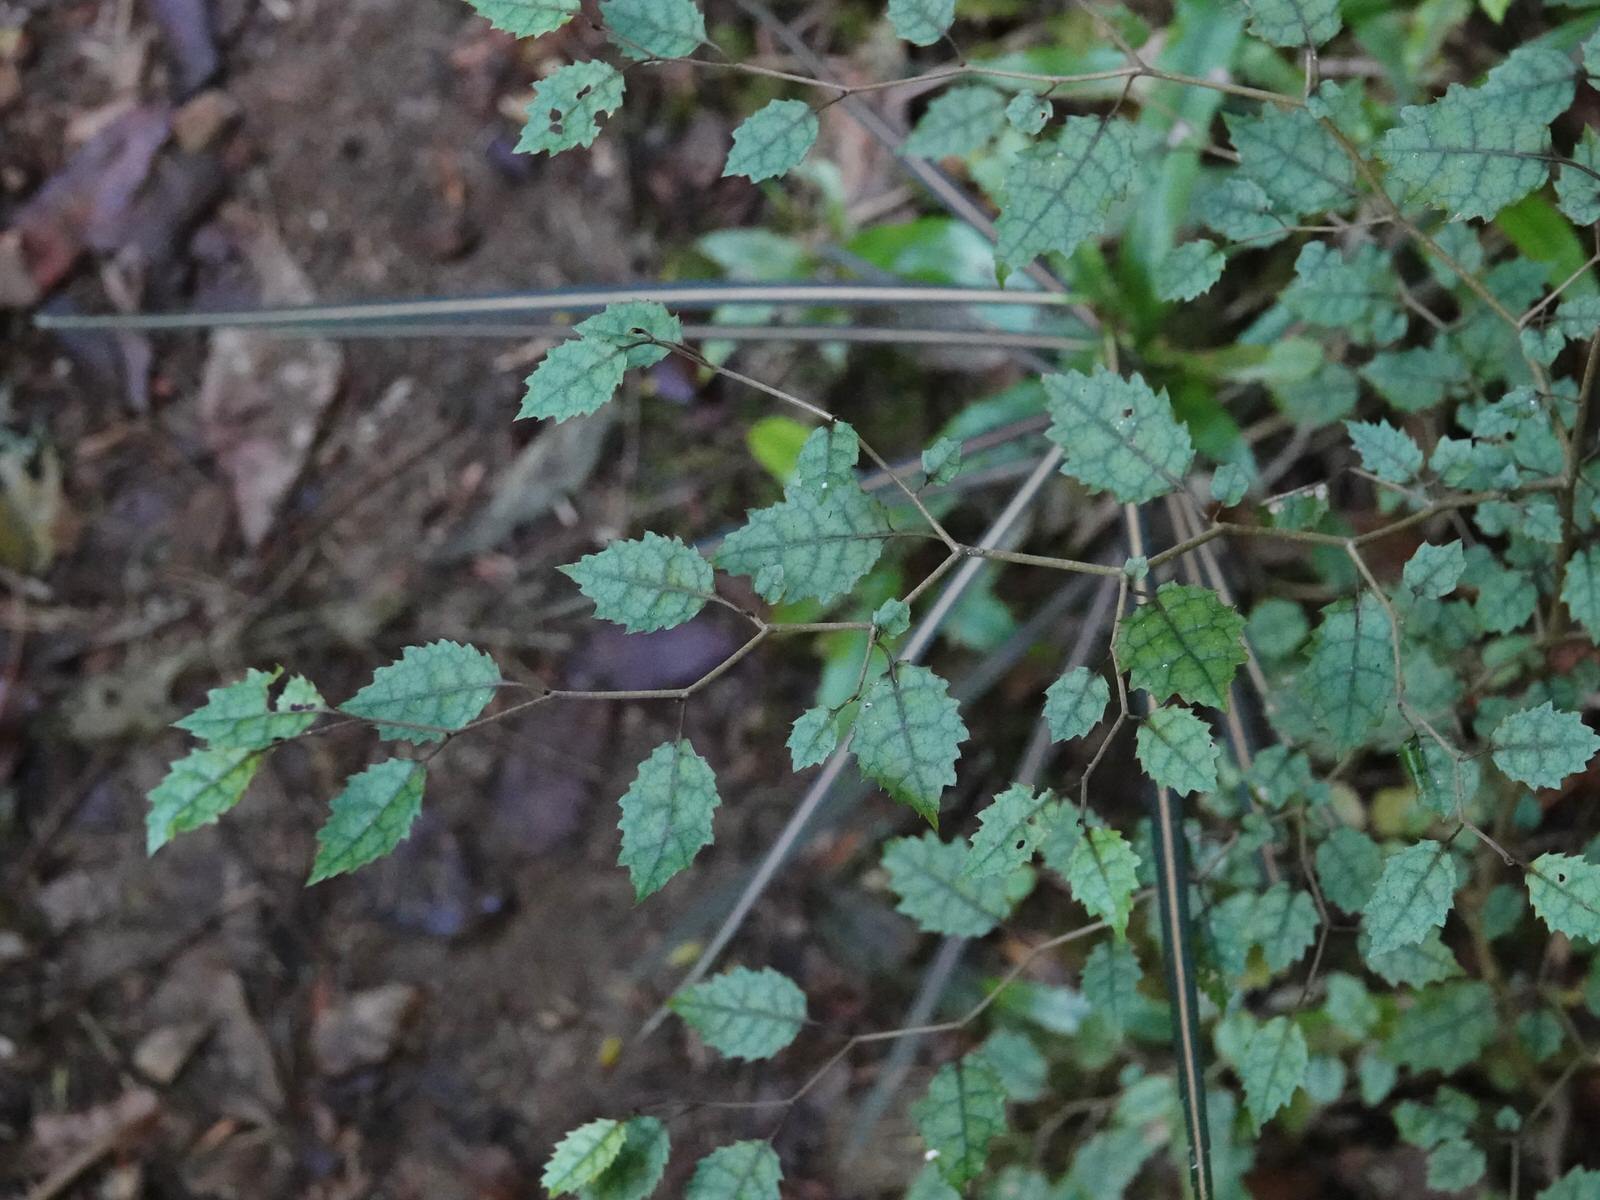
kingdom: Plantae
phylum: Tracheophyta
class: Magnoliopsida
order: Asterales
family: Rousseaceae
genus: Carpodetus
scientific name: Carpodetus serratus
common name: White mapau
